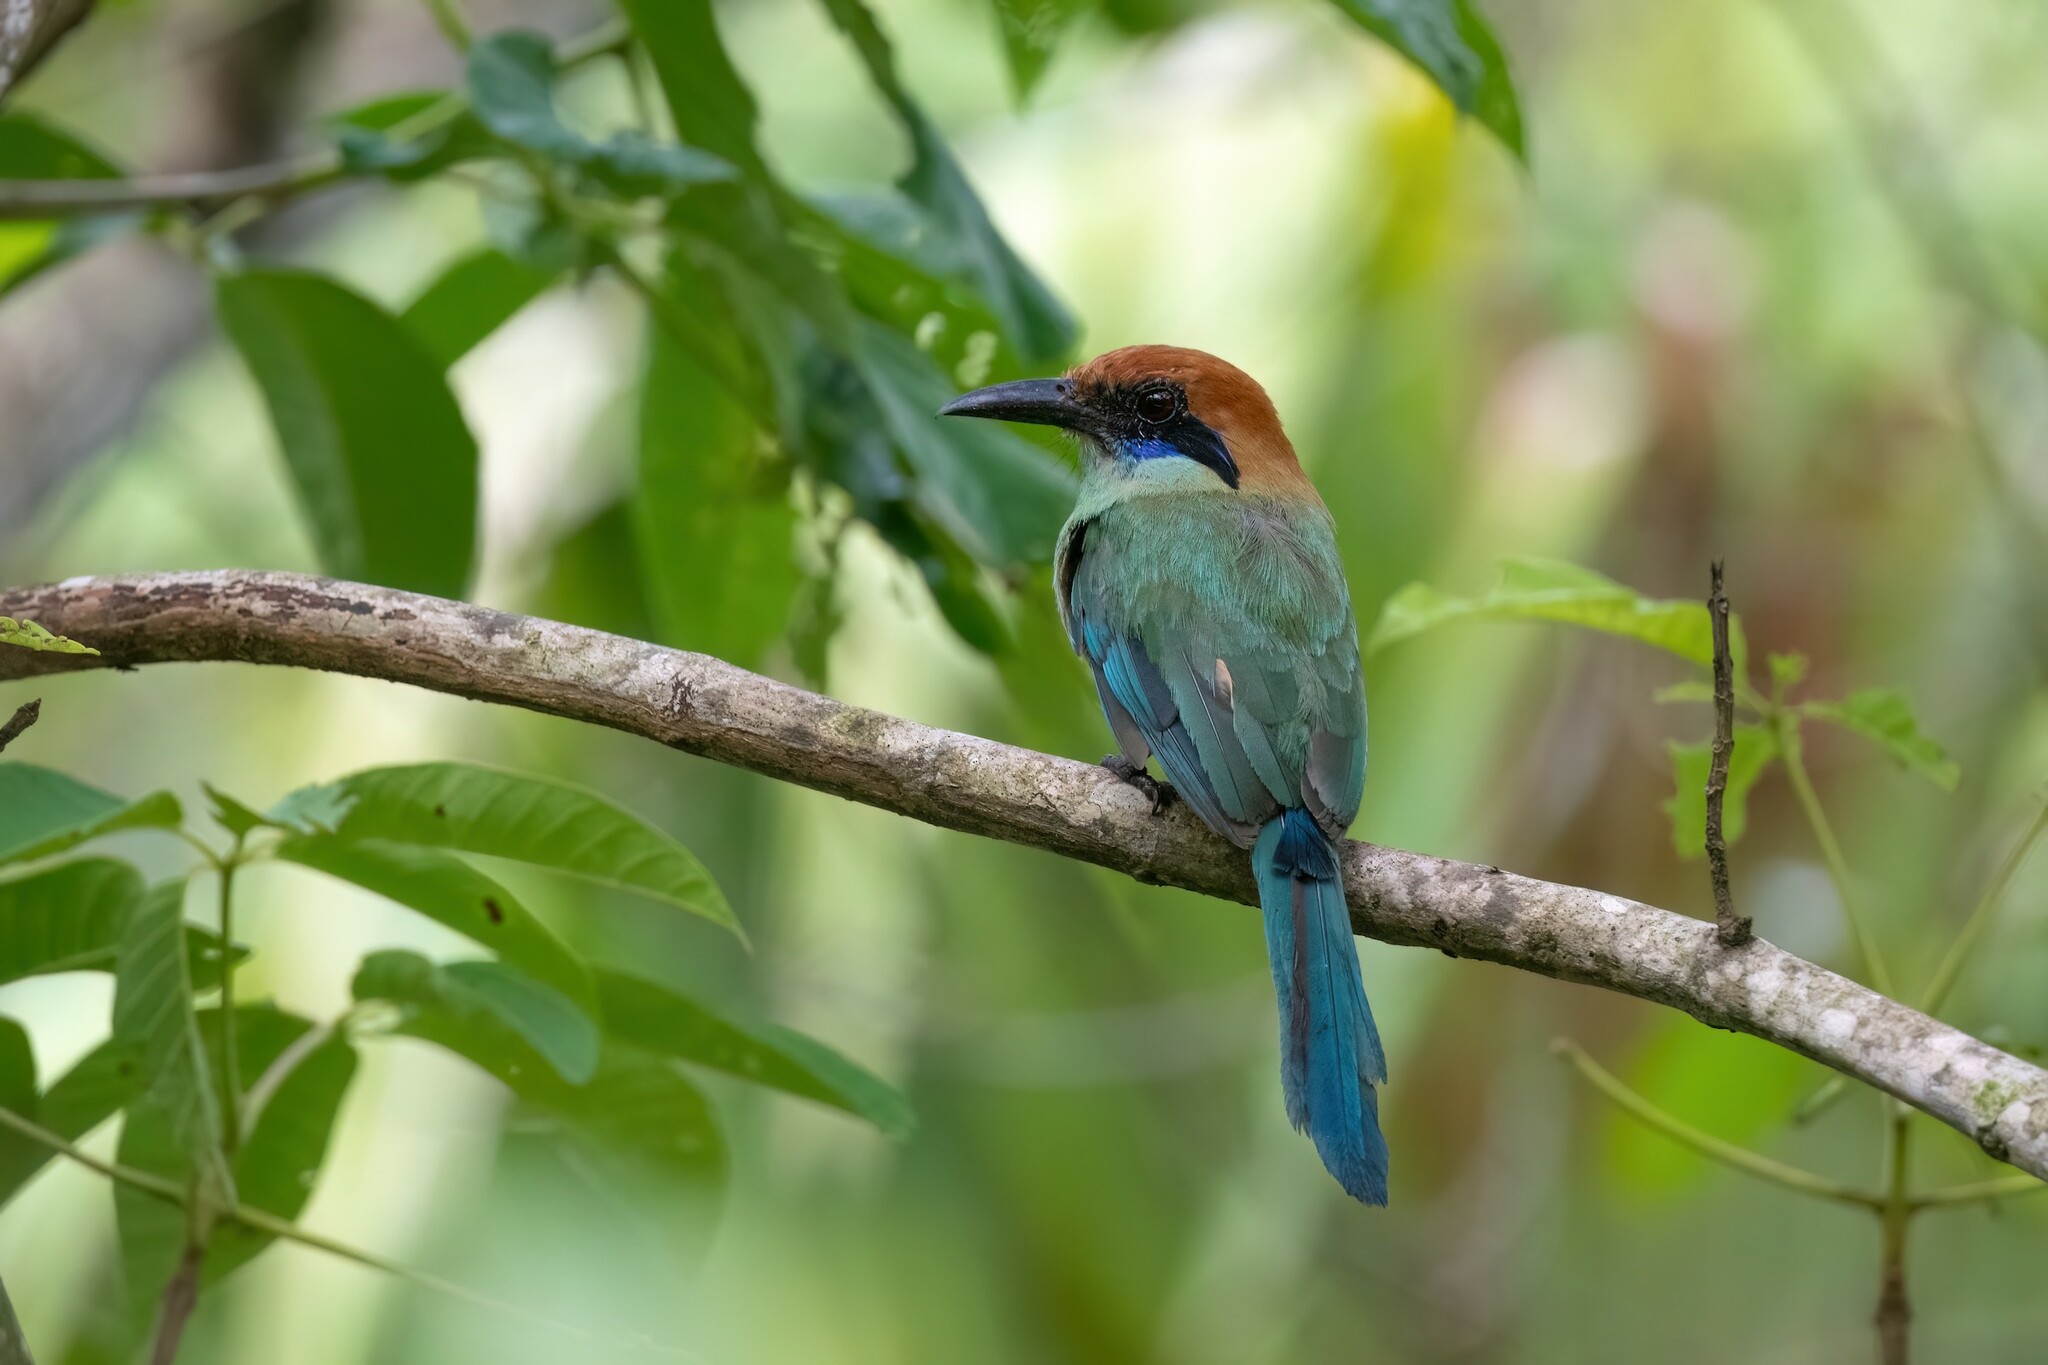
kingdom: Animalia
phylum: Chordata
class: Aves
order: Coraciiformes
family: Momotidae
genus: Momotus
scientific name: Momotus mexicanus
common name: Russet-crowned motmot
